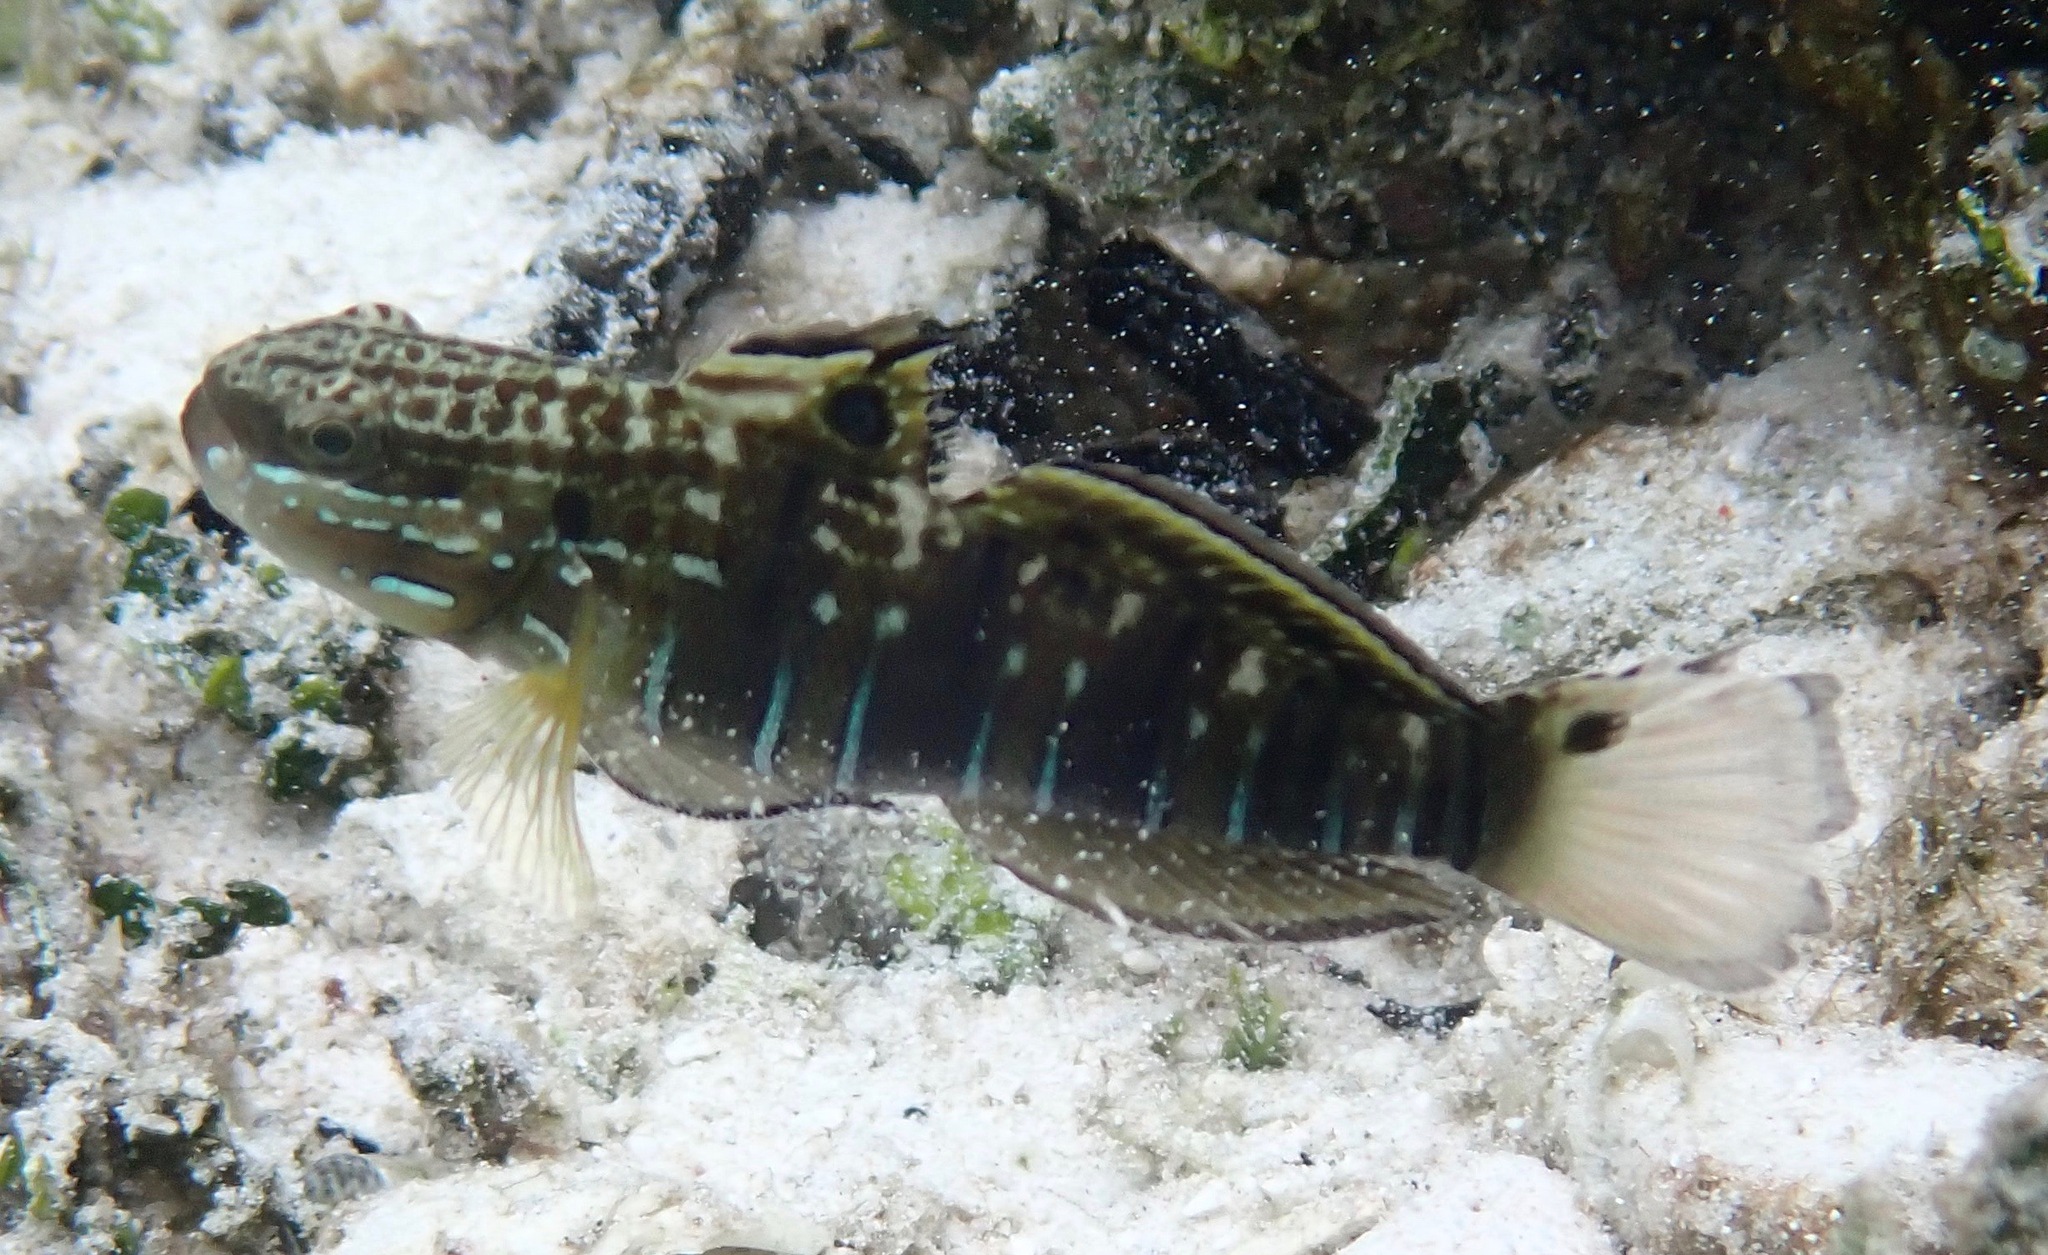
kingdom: Animalia
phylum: Chordata
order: Perciformes
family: Gobiidae
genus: Amblygobius
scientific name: Amblygobius phalaena
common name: Banded goby
